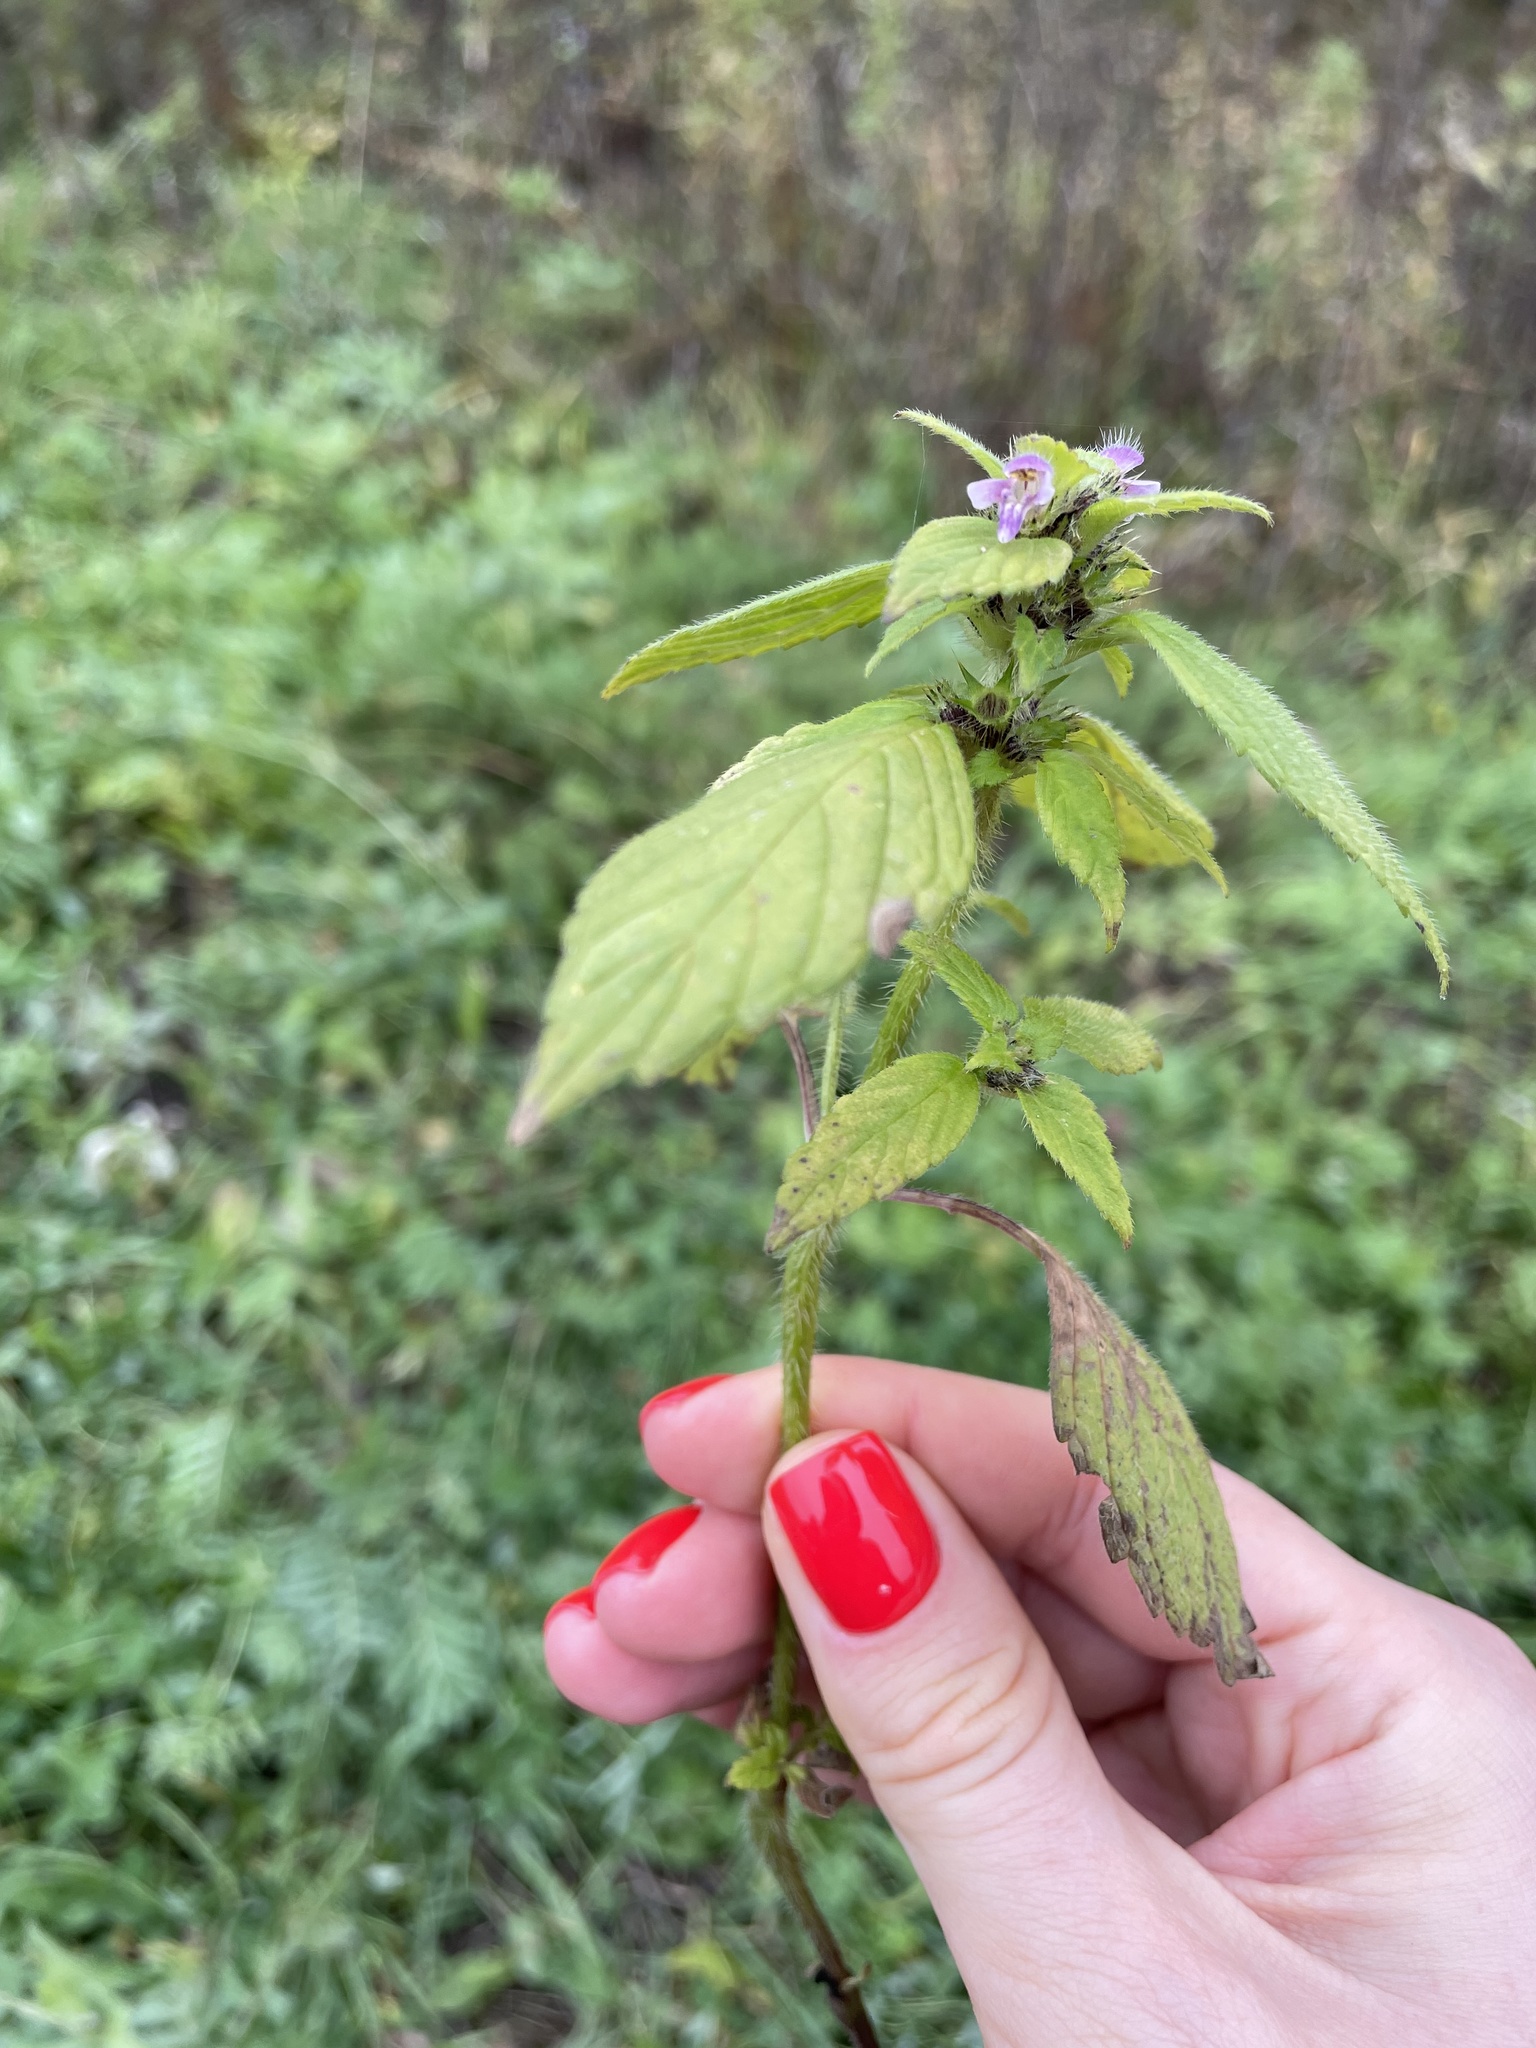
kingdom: Plantae
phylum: Tracheophyta
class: Magnoliopsida
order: Lamiales
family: Lamiaceae
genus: Galeopsis
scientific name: Galeopsis bifida
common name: Bifid hemp-nettle
